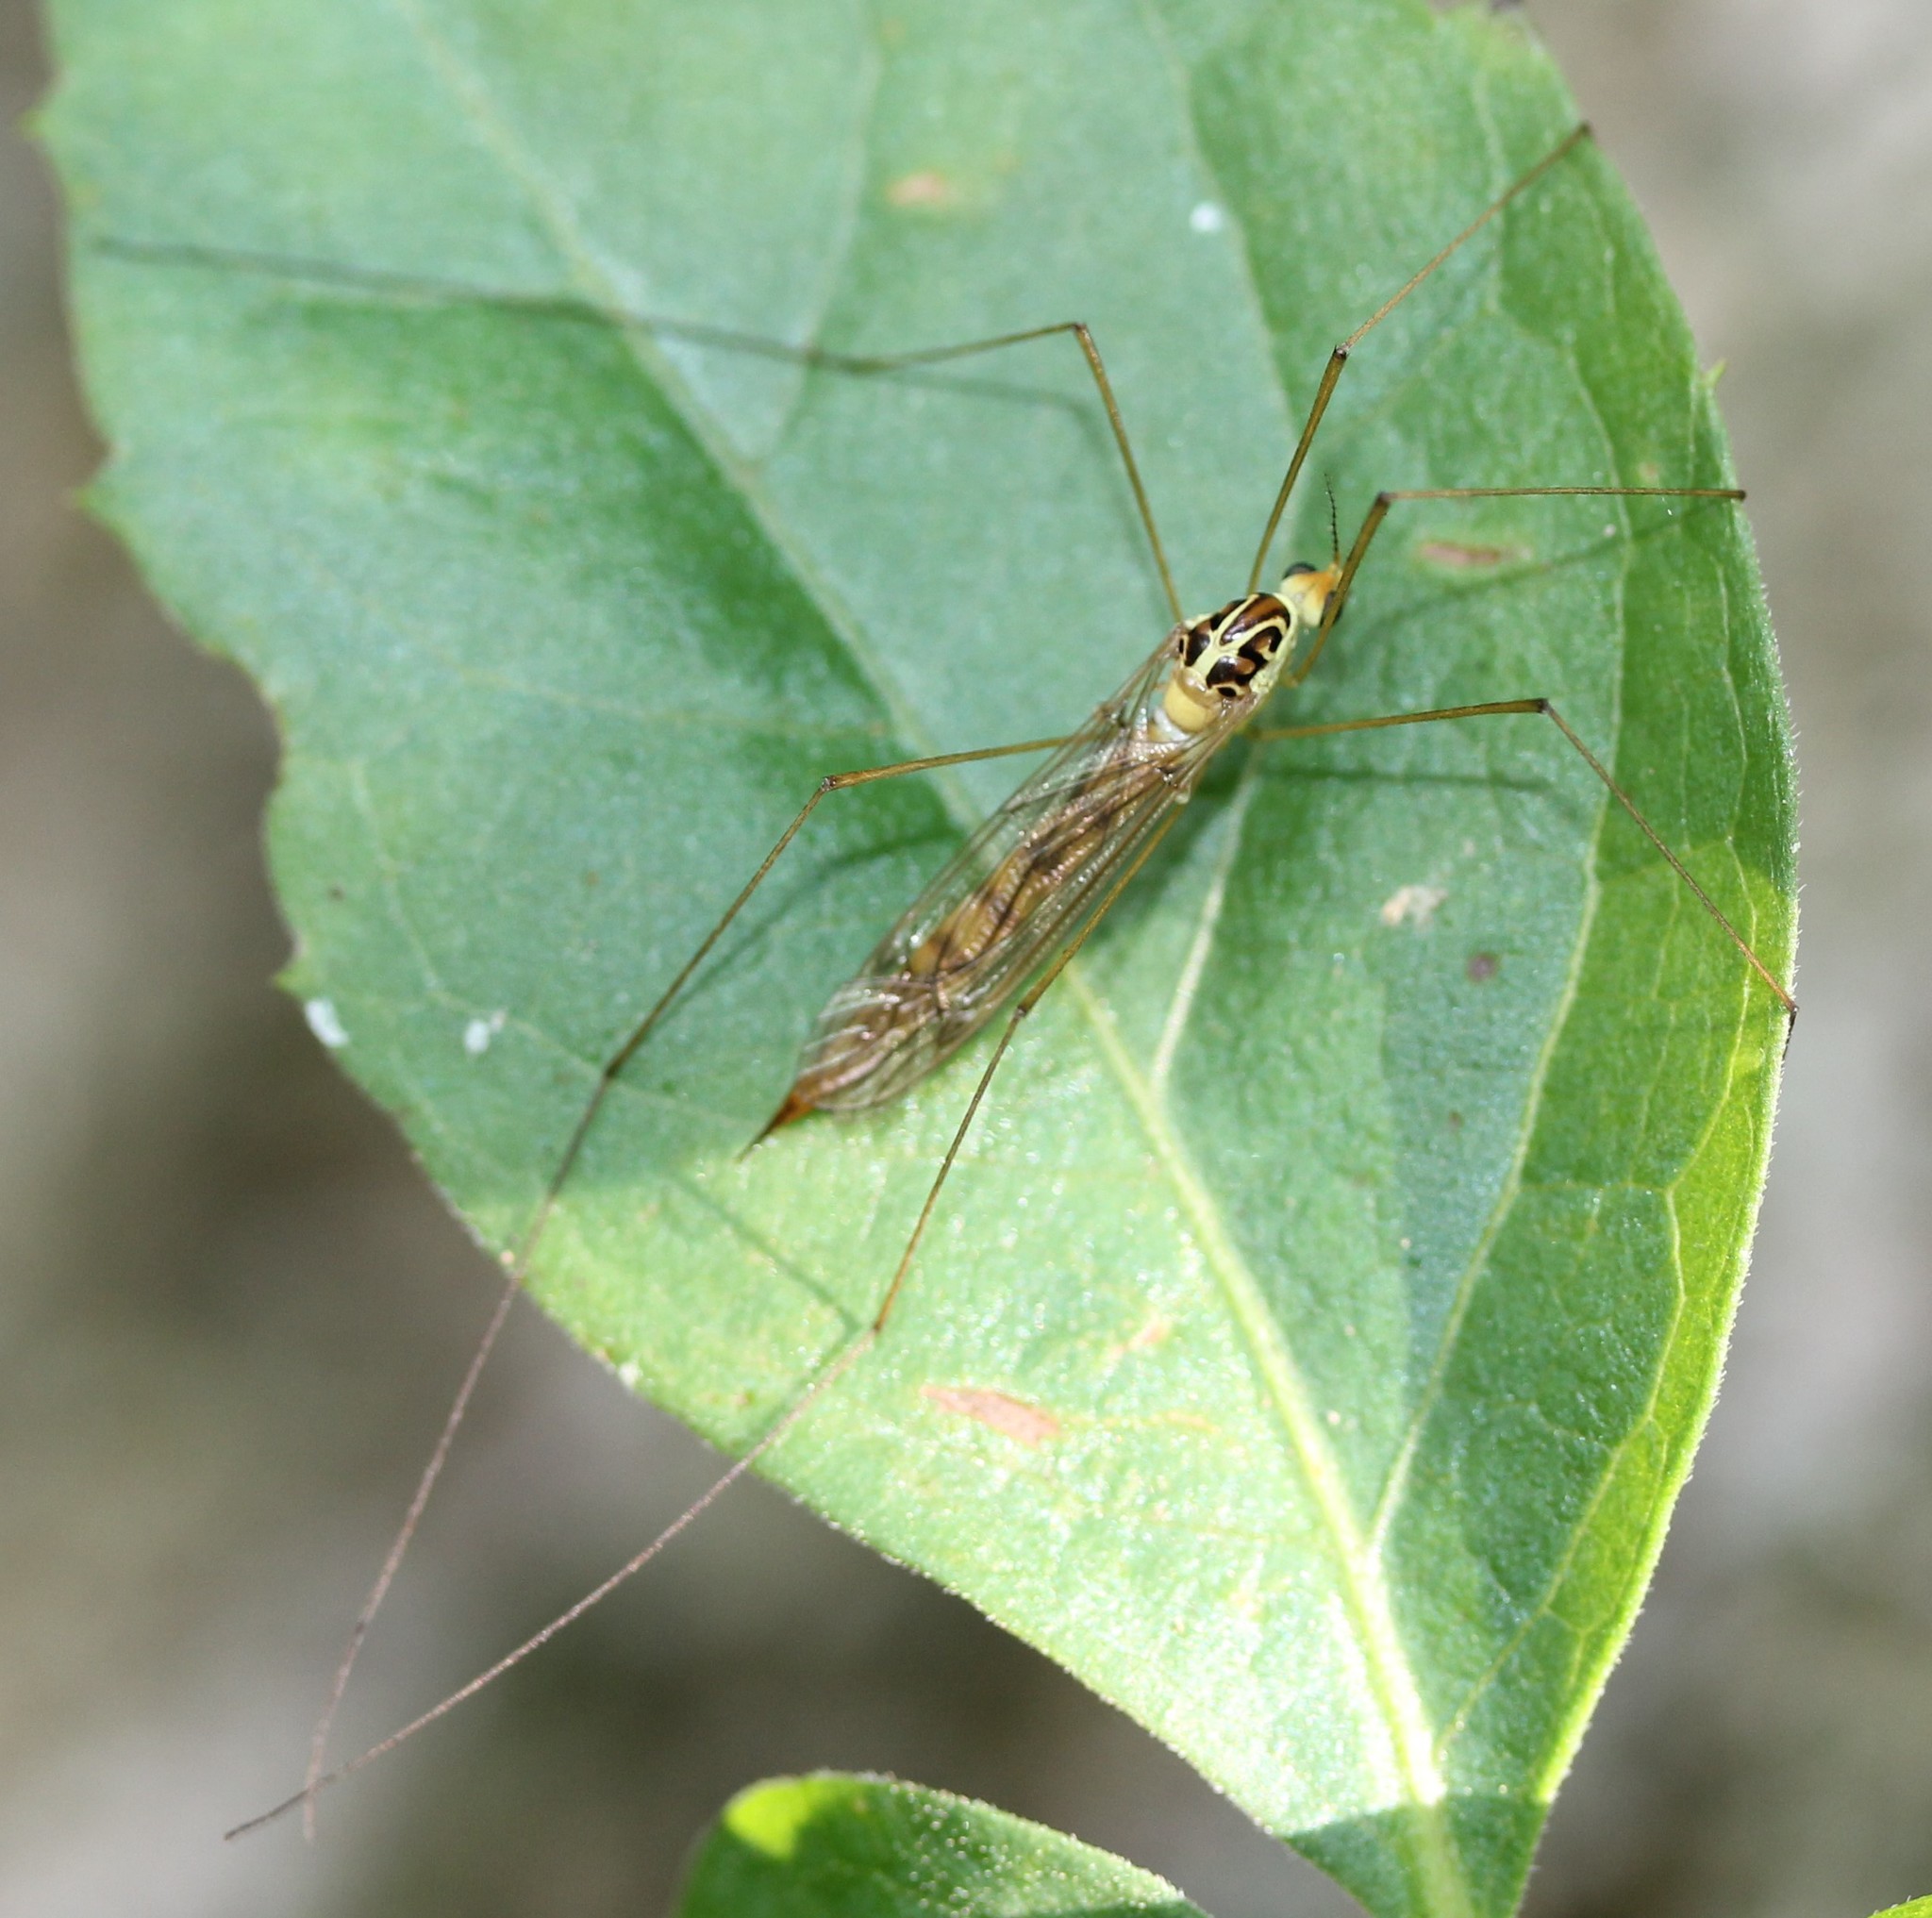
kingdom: Animalia
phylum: Arthropoda
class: Insecta
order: Diptera
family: Tipulidae
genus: Nephrotoma
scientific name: Nephrotoma virescens
